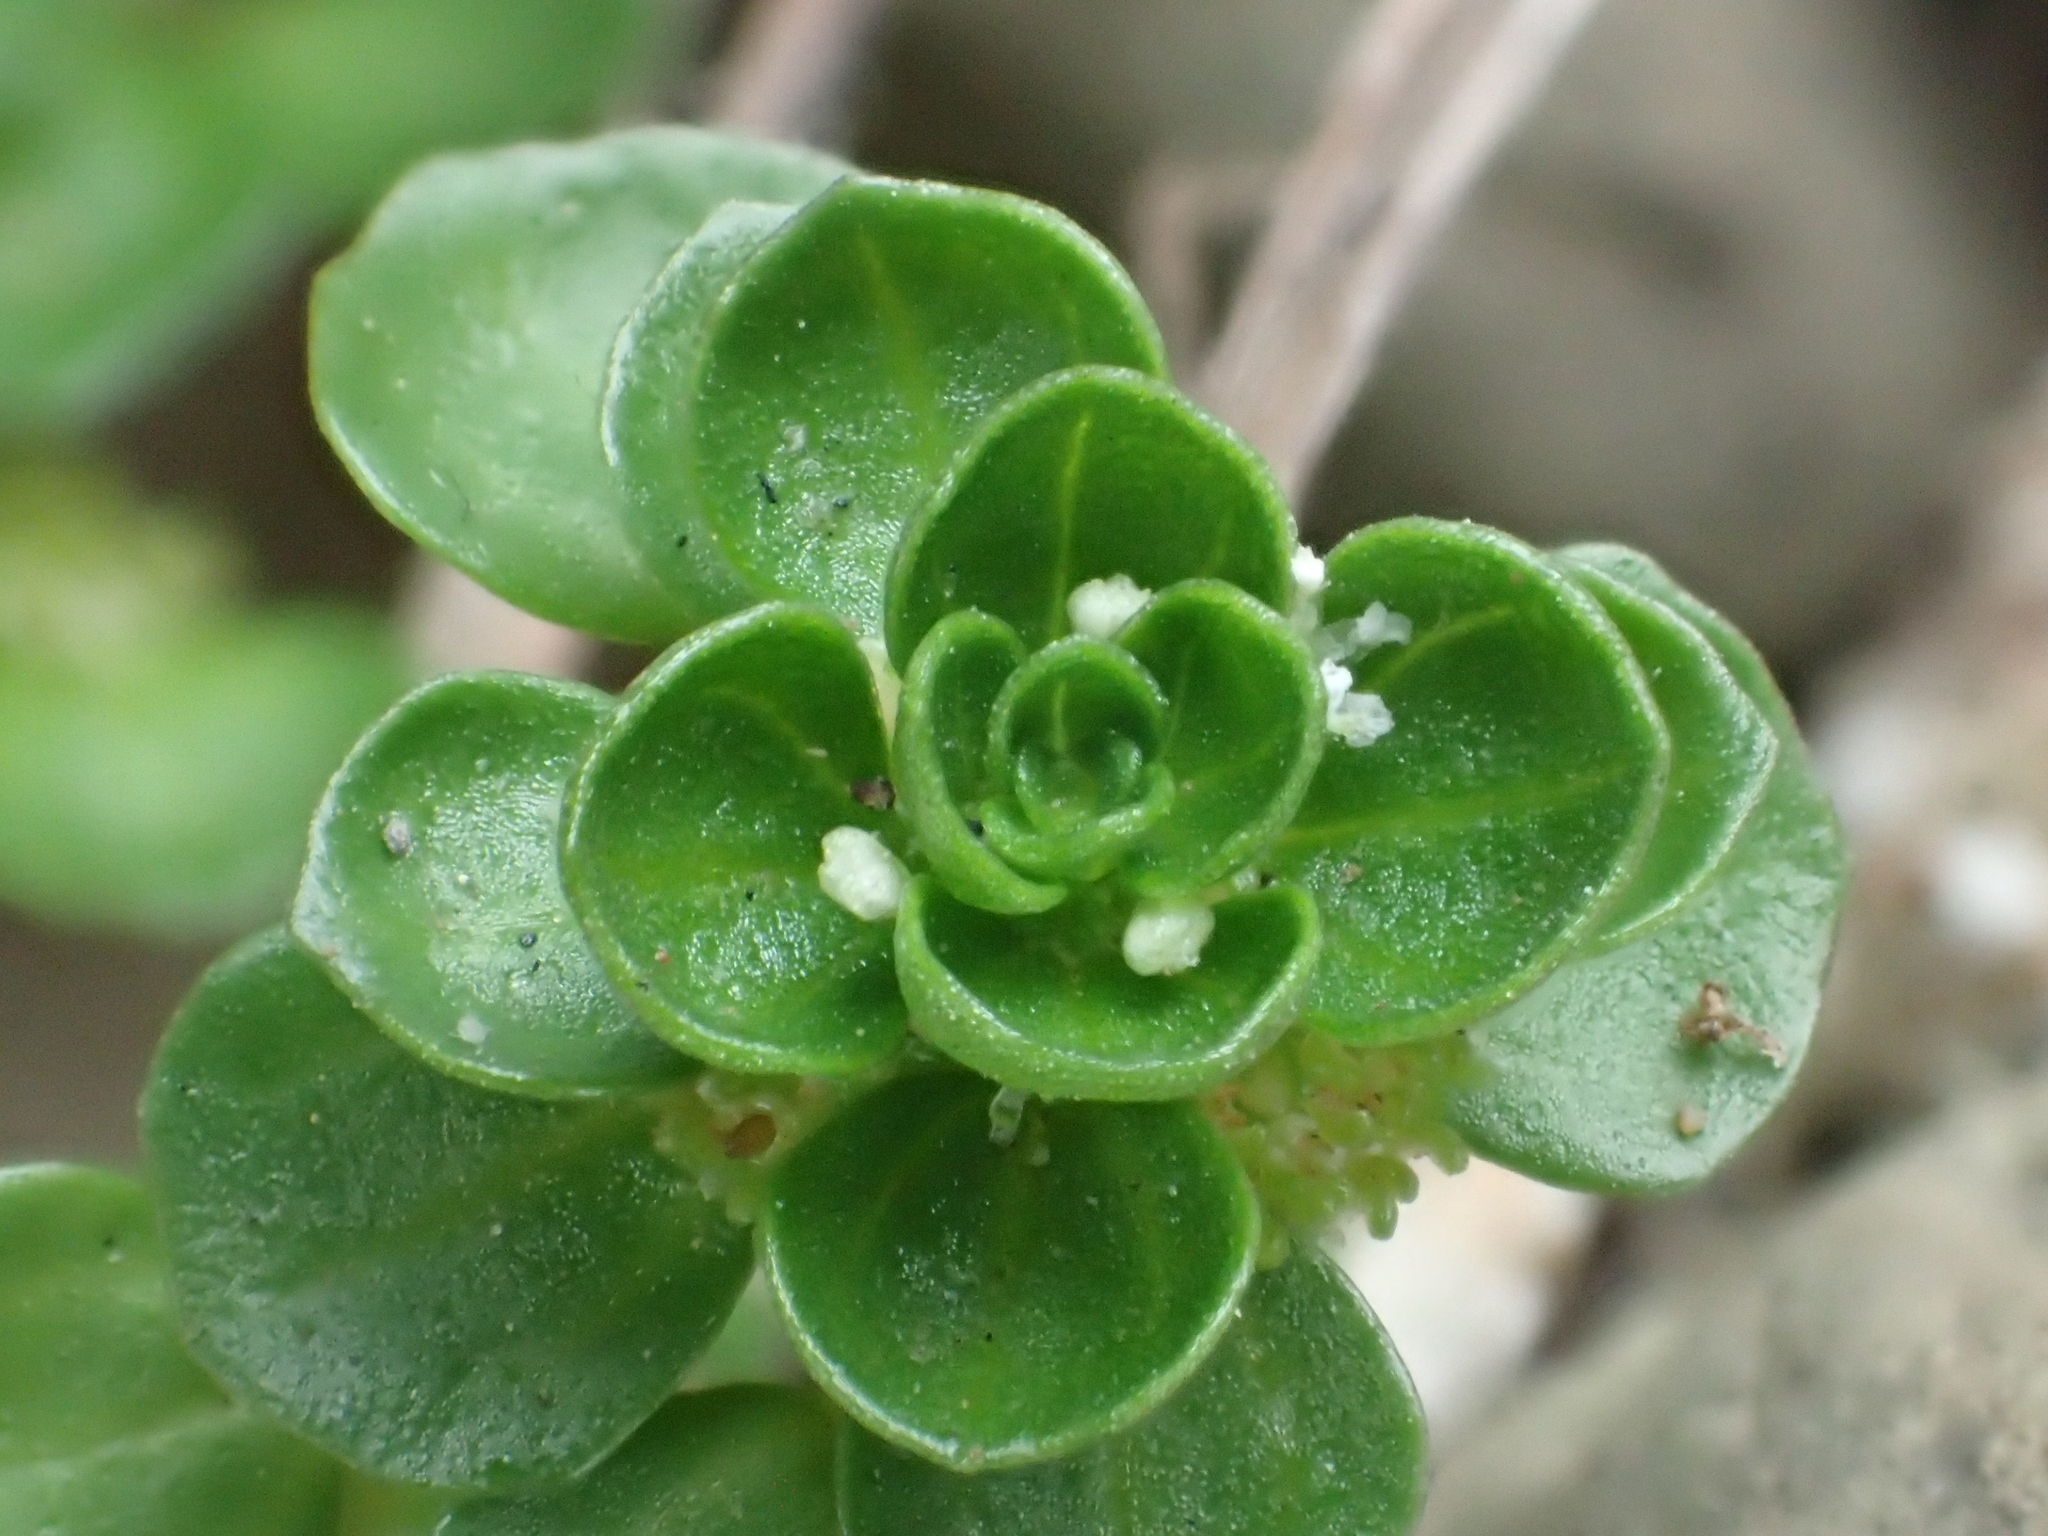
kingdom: Plantae
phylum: Tracheophyta
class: Magnoliopsida
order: Rosales
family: Urticaceae
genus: Pilea
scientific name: Pilea peploides
